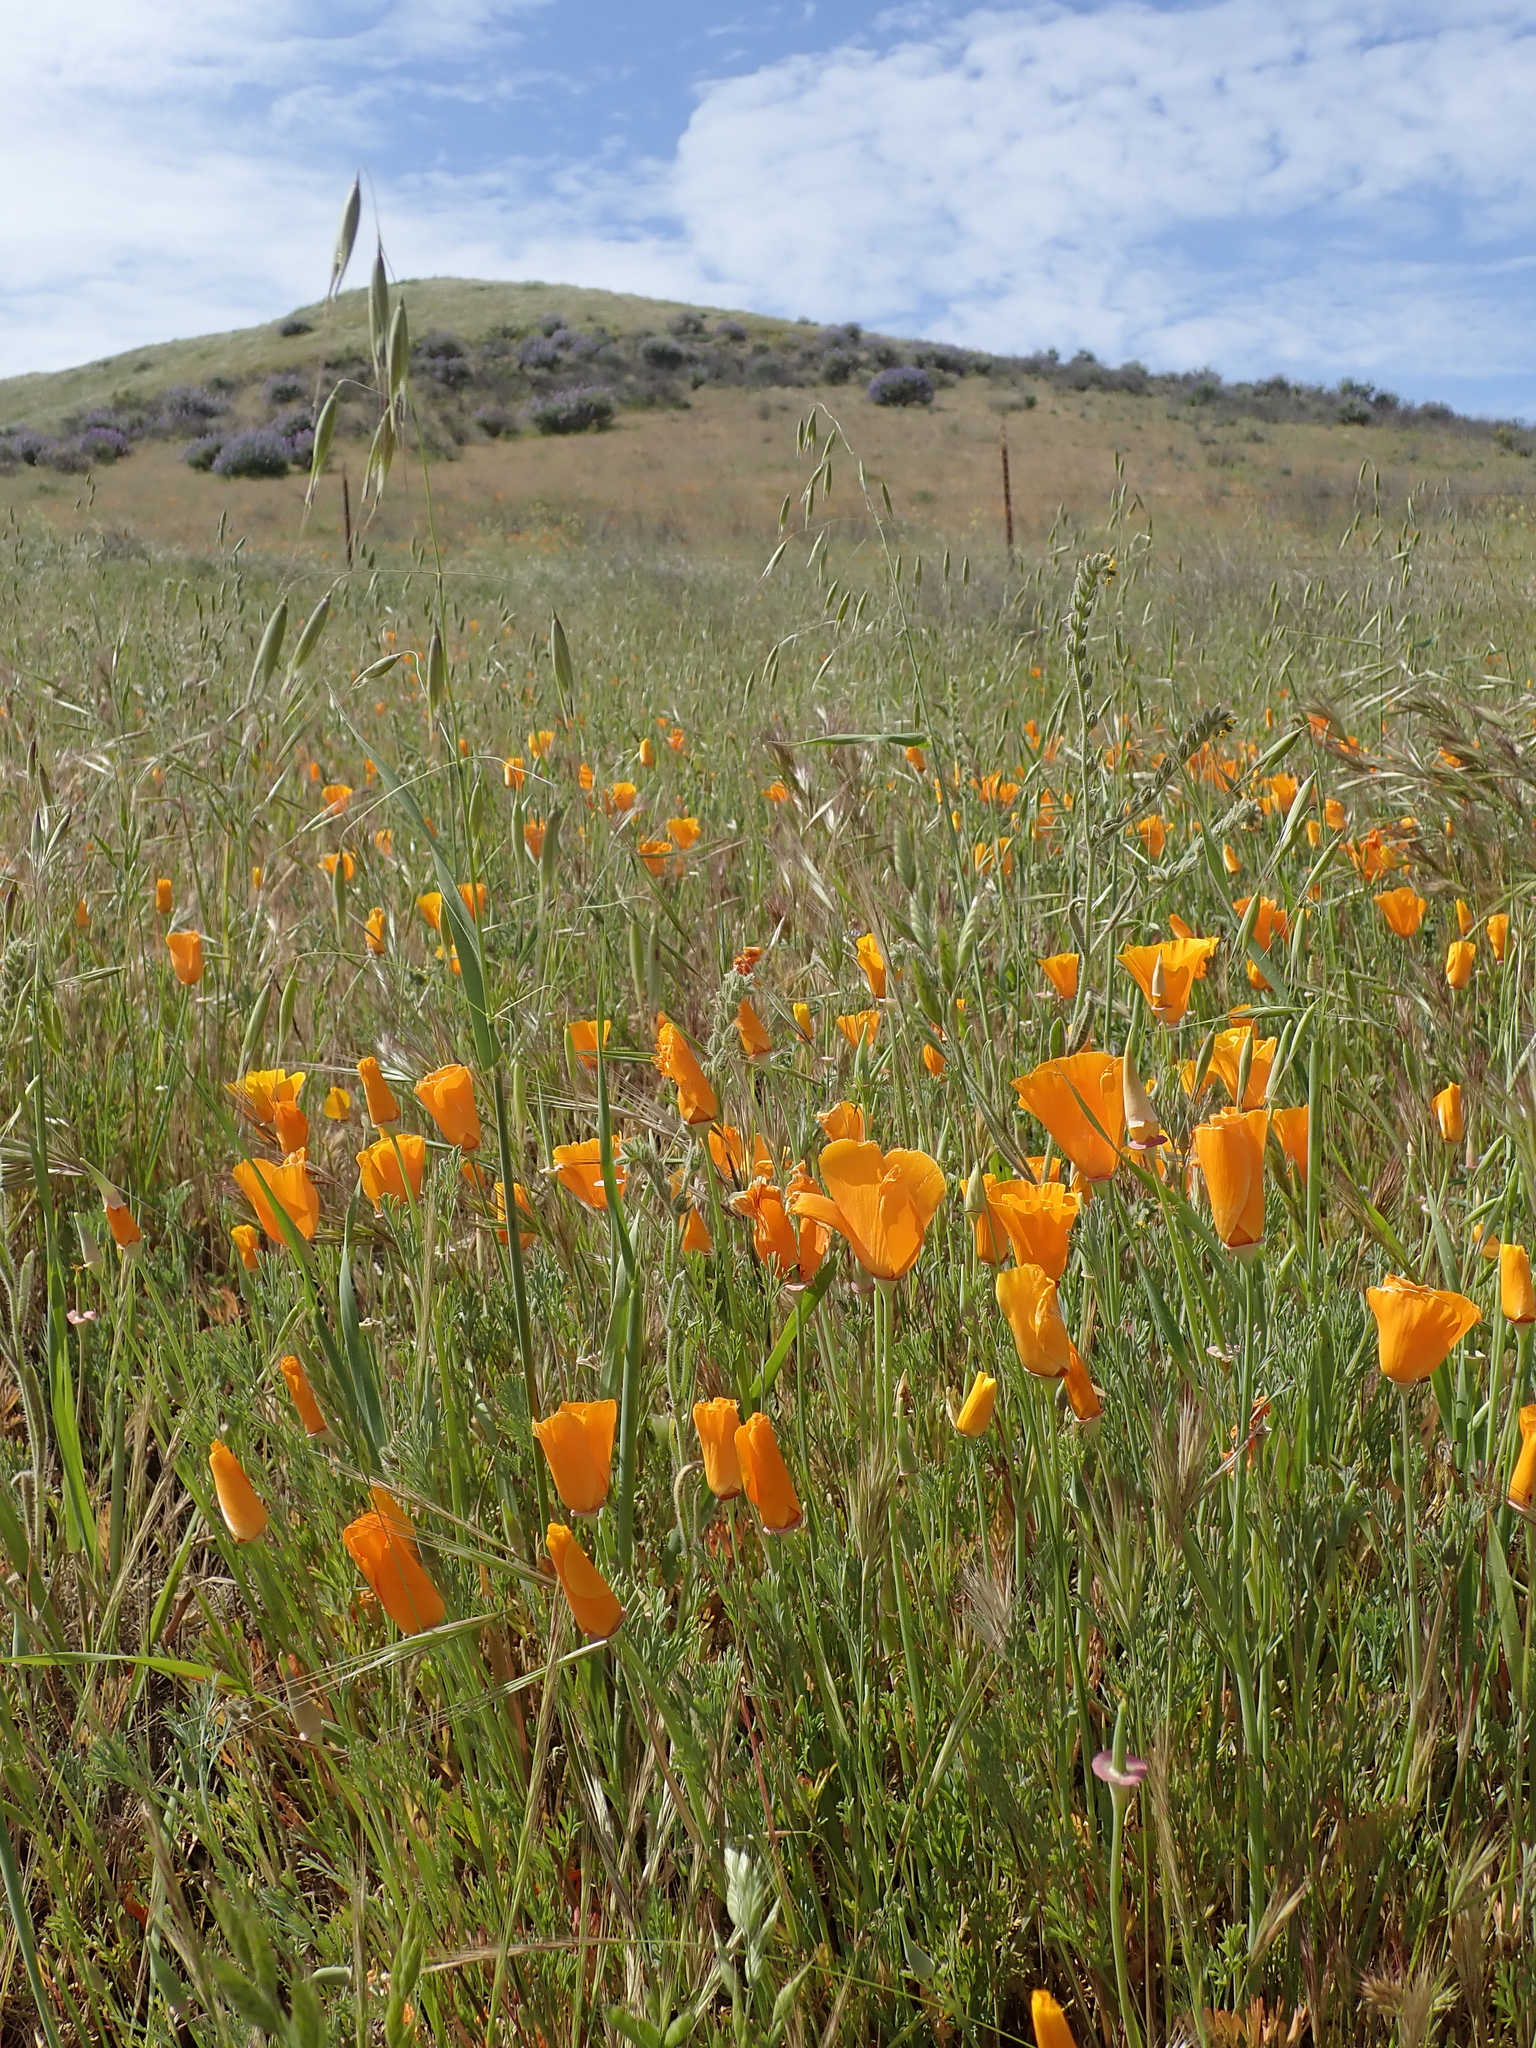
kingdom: Plantae
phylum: Tracheophyta
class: Magnoliopsida
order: Ranunculales
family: Papaveraceae
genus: Eschscholzia
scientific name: Eschscholzia californica
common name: California poppy
